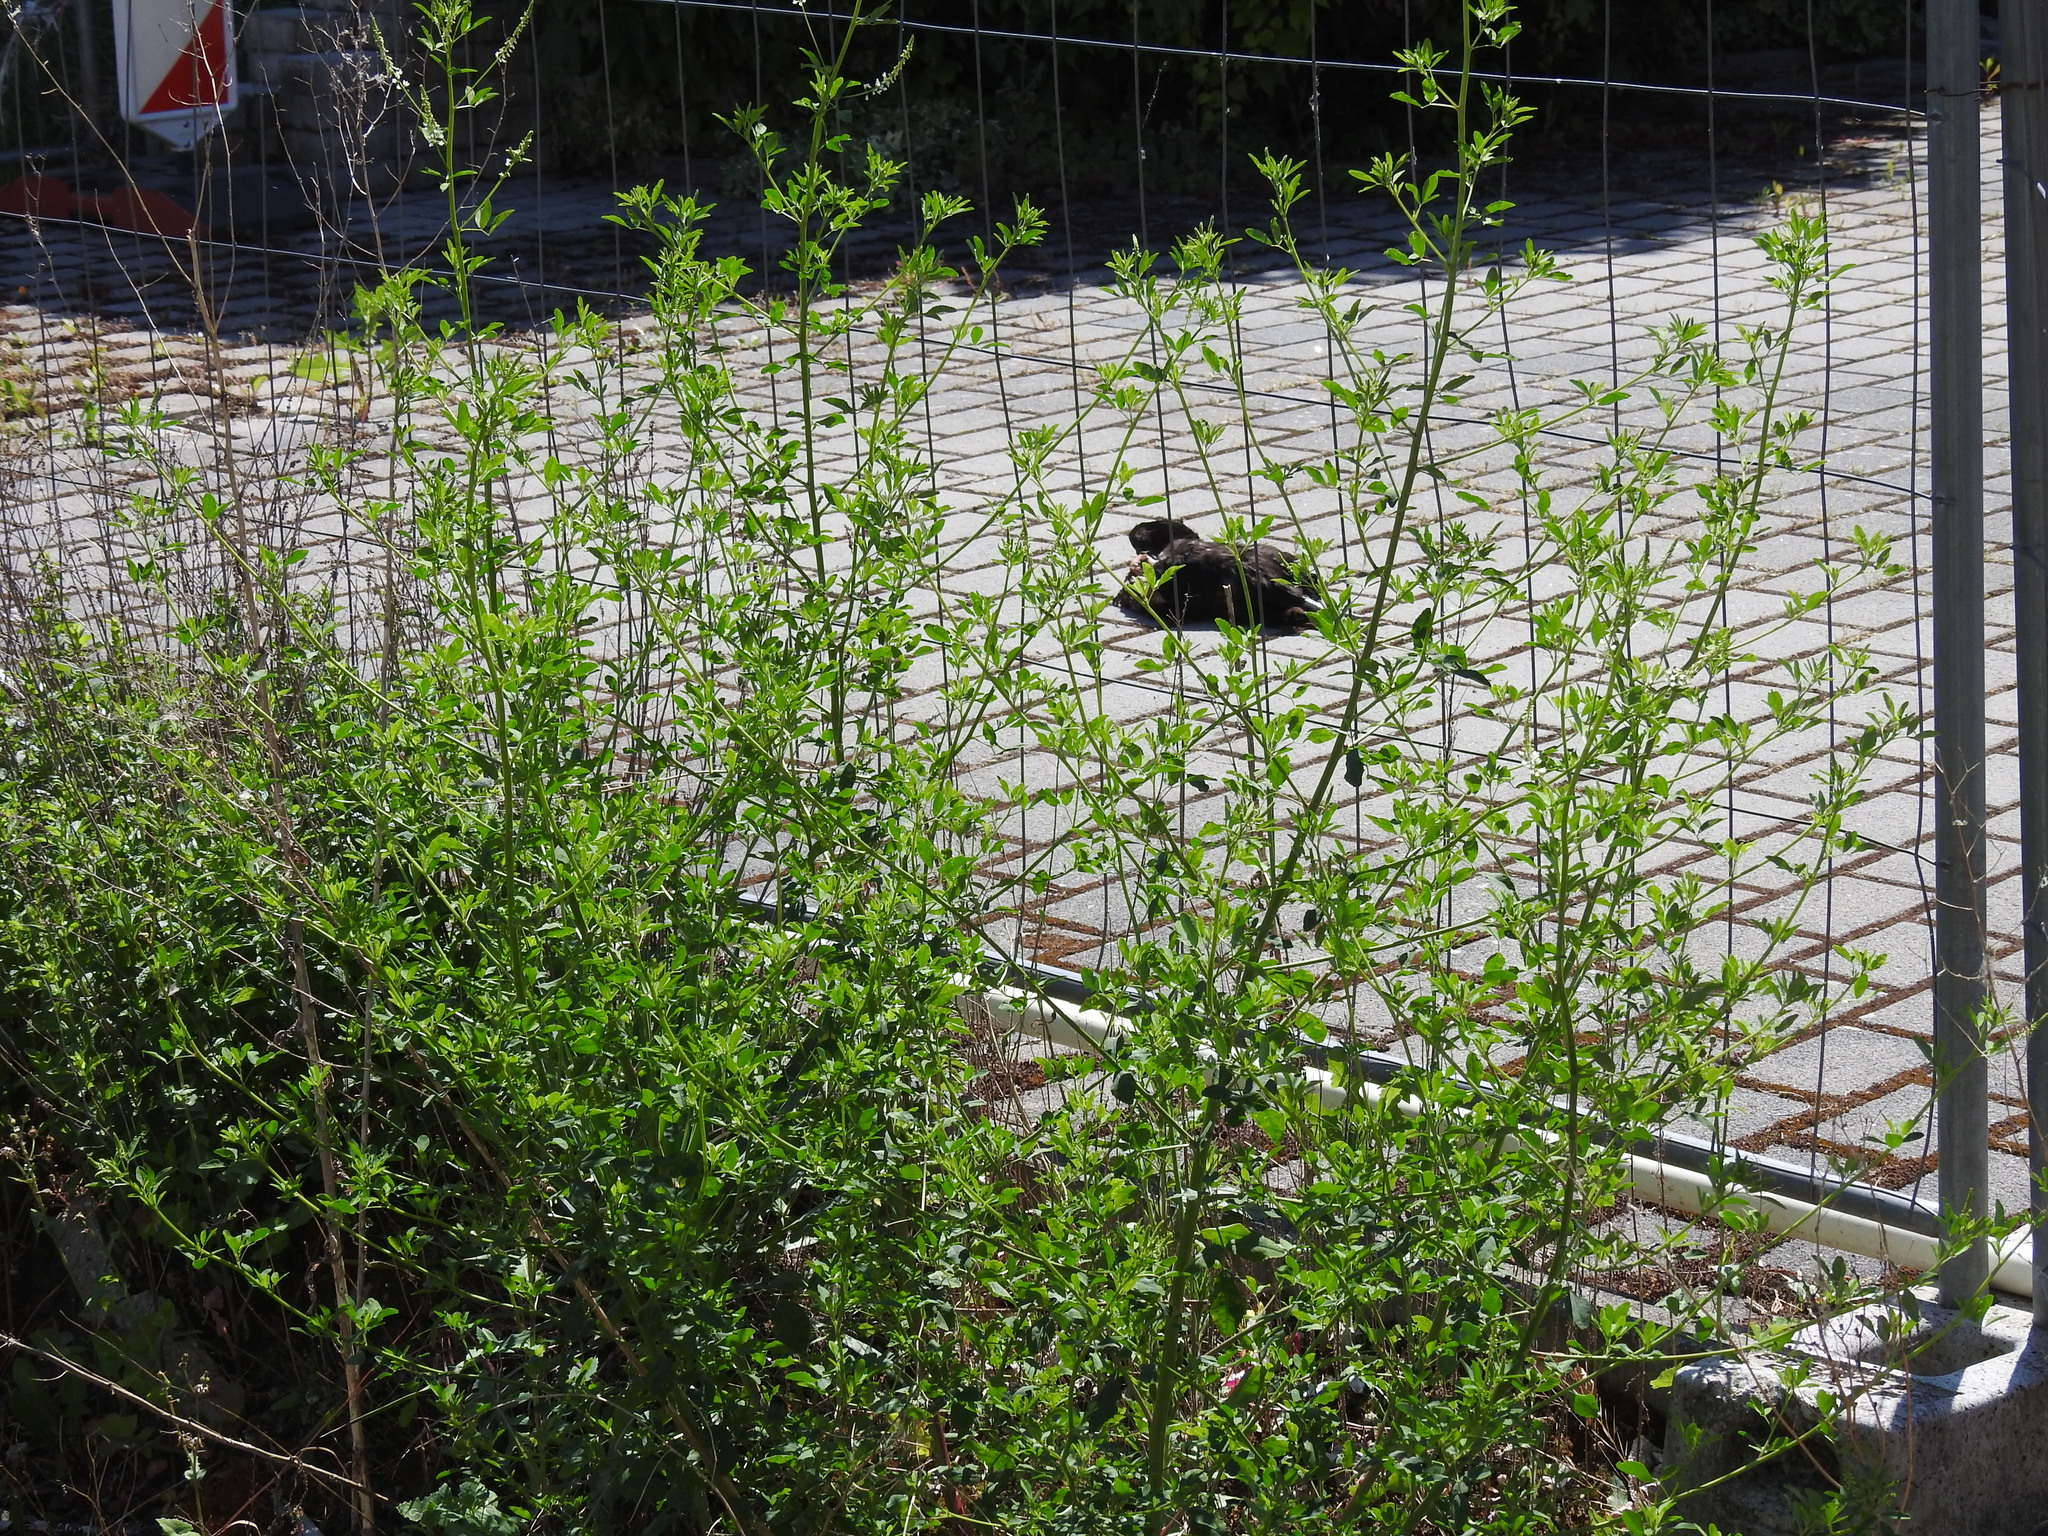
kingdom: Plantae
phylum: Tracheophyta
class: Magnoliopsida
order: Fabales
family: Fabaceae
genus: Melilotus
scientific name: Melilotus albus
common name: White melilot
